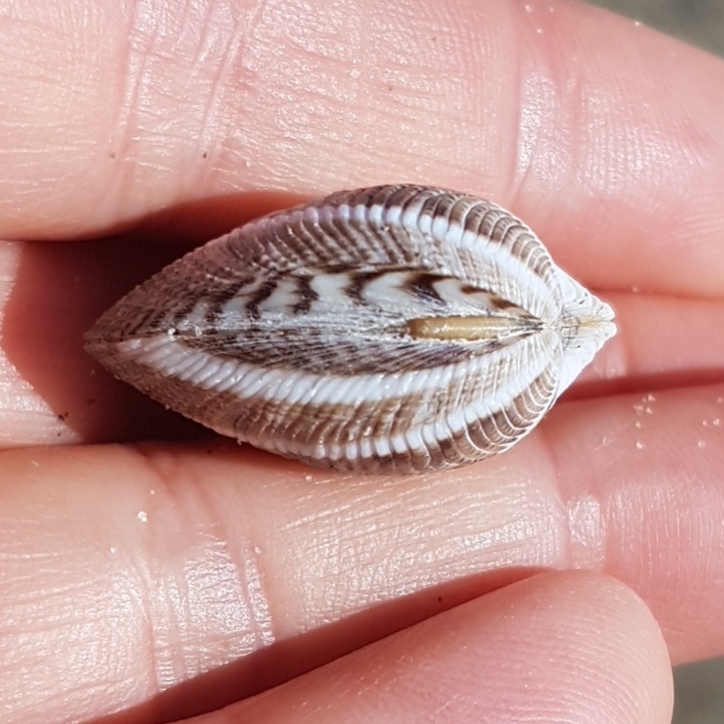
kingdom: Animalia
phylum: Mollusca
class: Bivalvia
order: Venerida
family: Veneridae
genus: Chamelea
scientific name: Chamelea gallina
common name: Chicken venus
